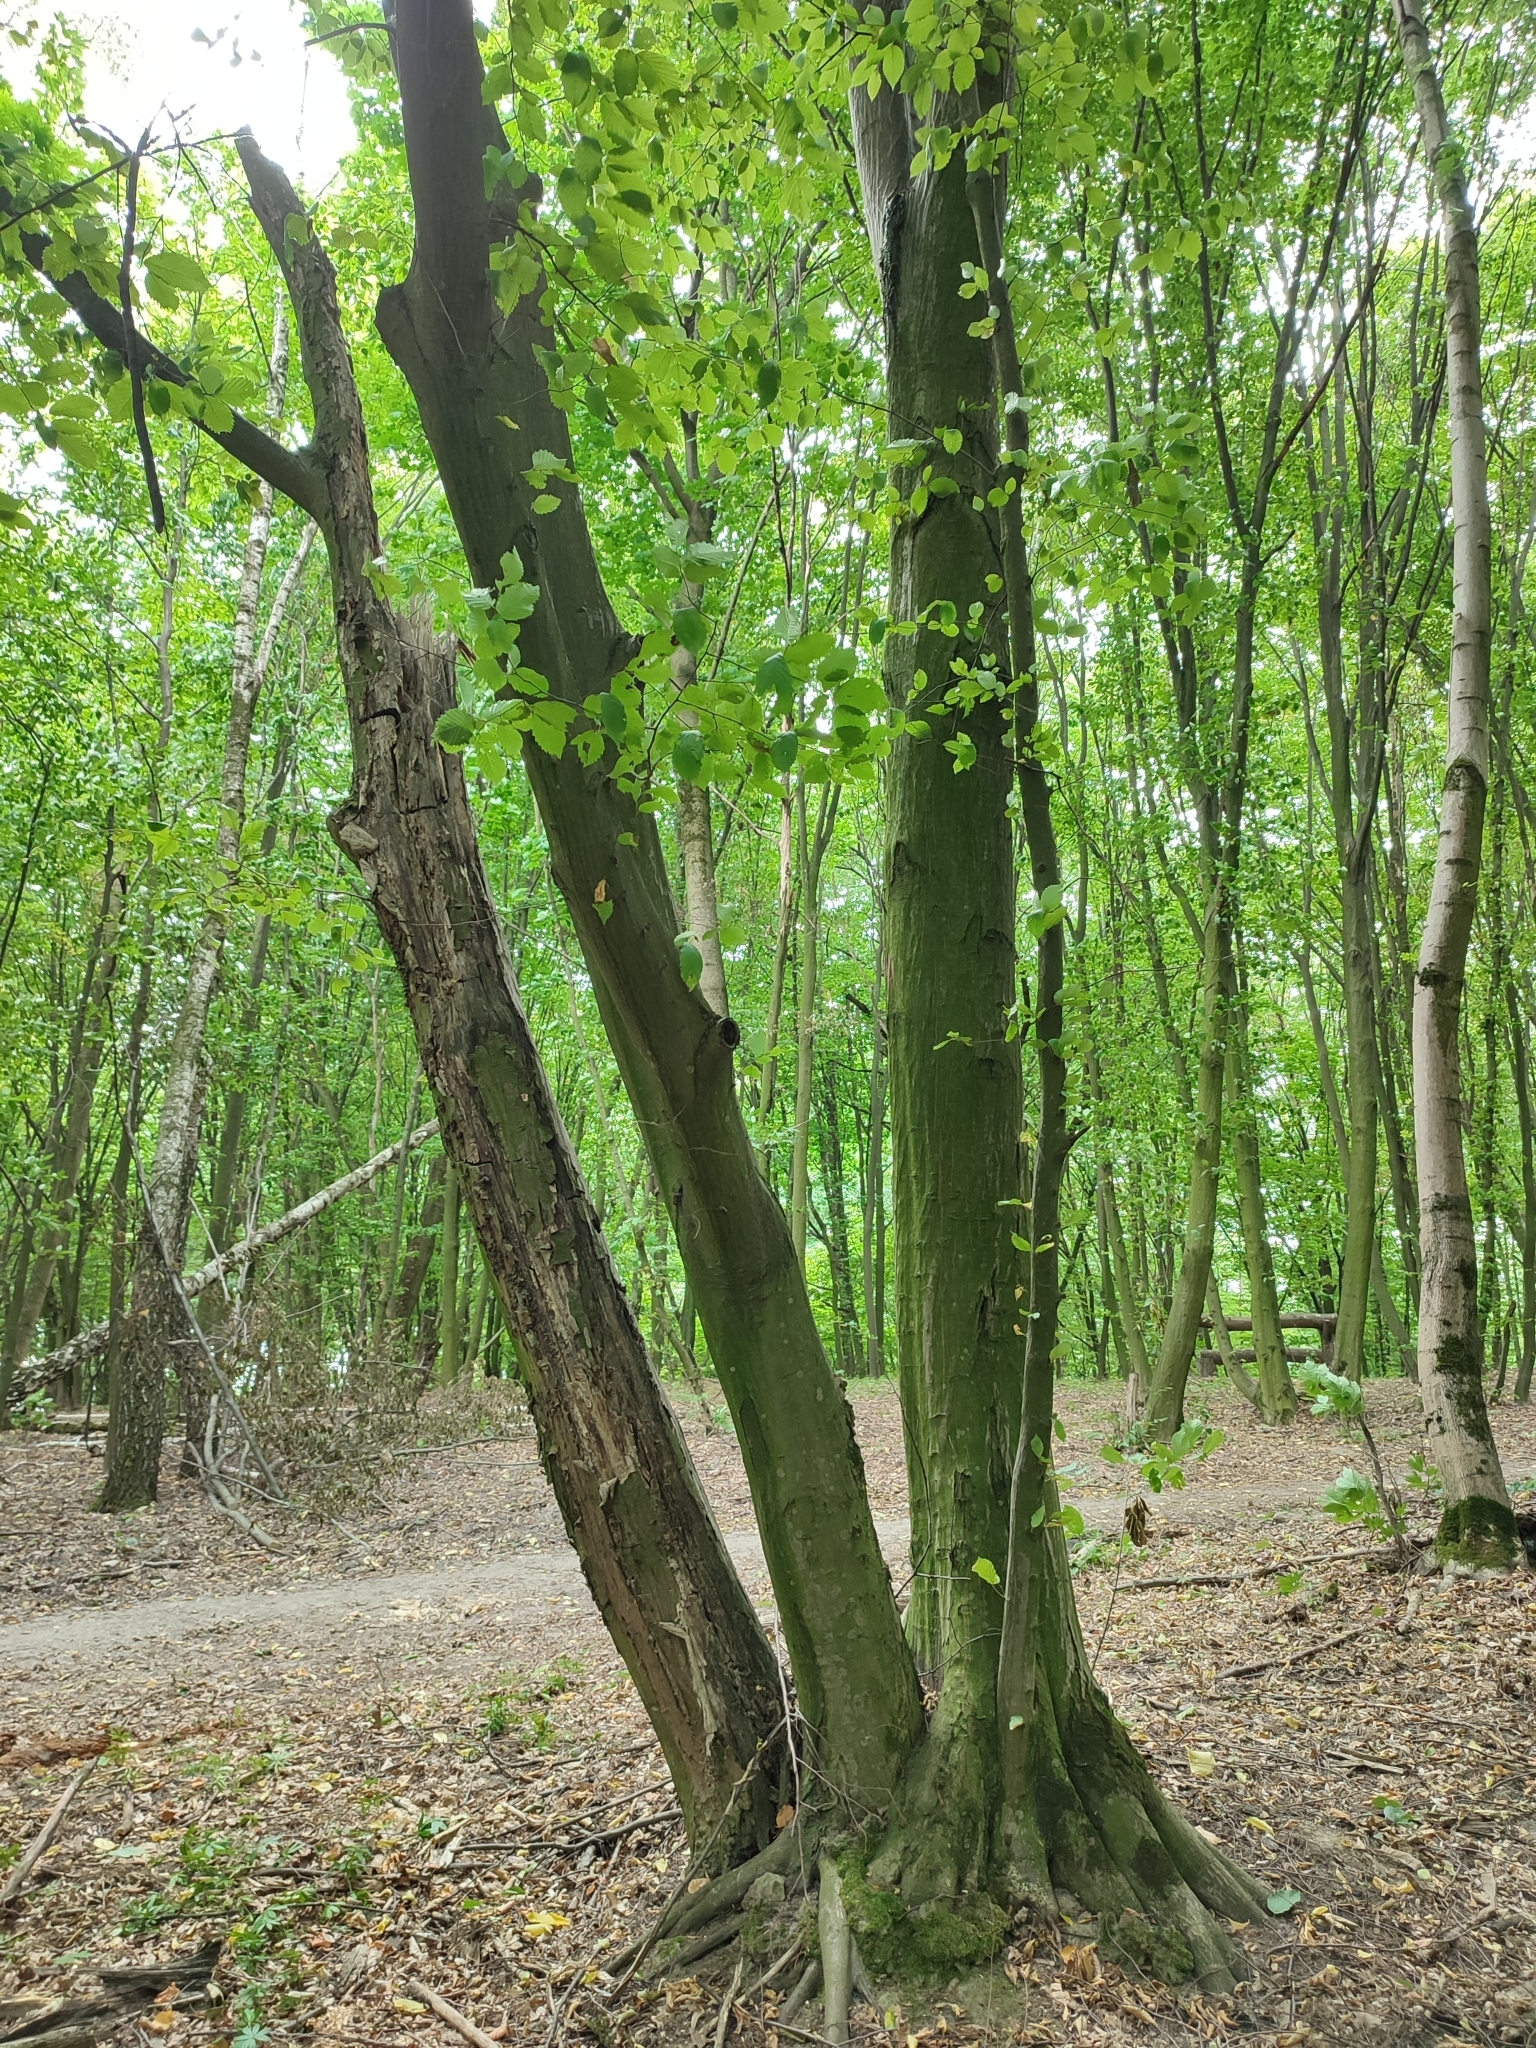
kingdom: Plantae
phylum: Tracheophyta
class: Magnoliopsida
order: Fagales
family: Betulaceae
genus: Carpinus
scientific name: Carpinus betulus
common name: Hornbeam
